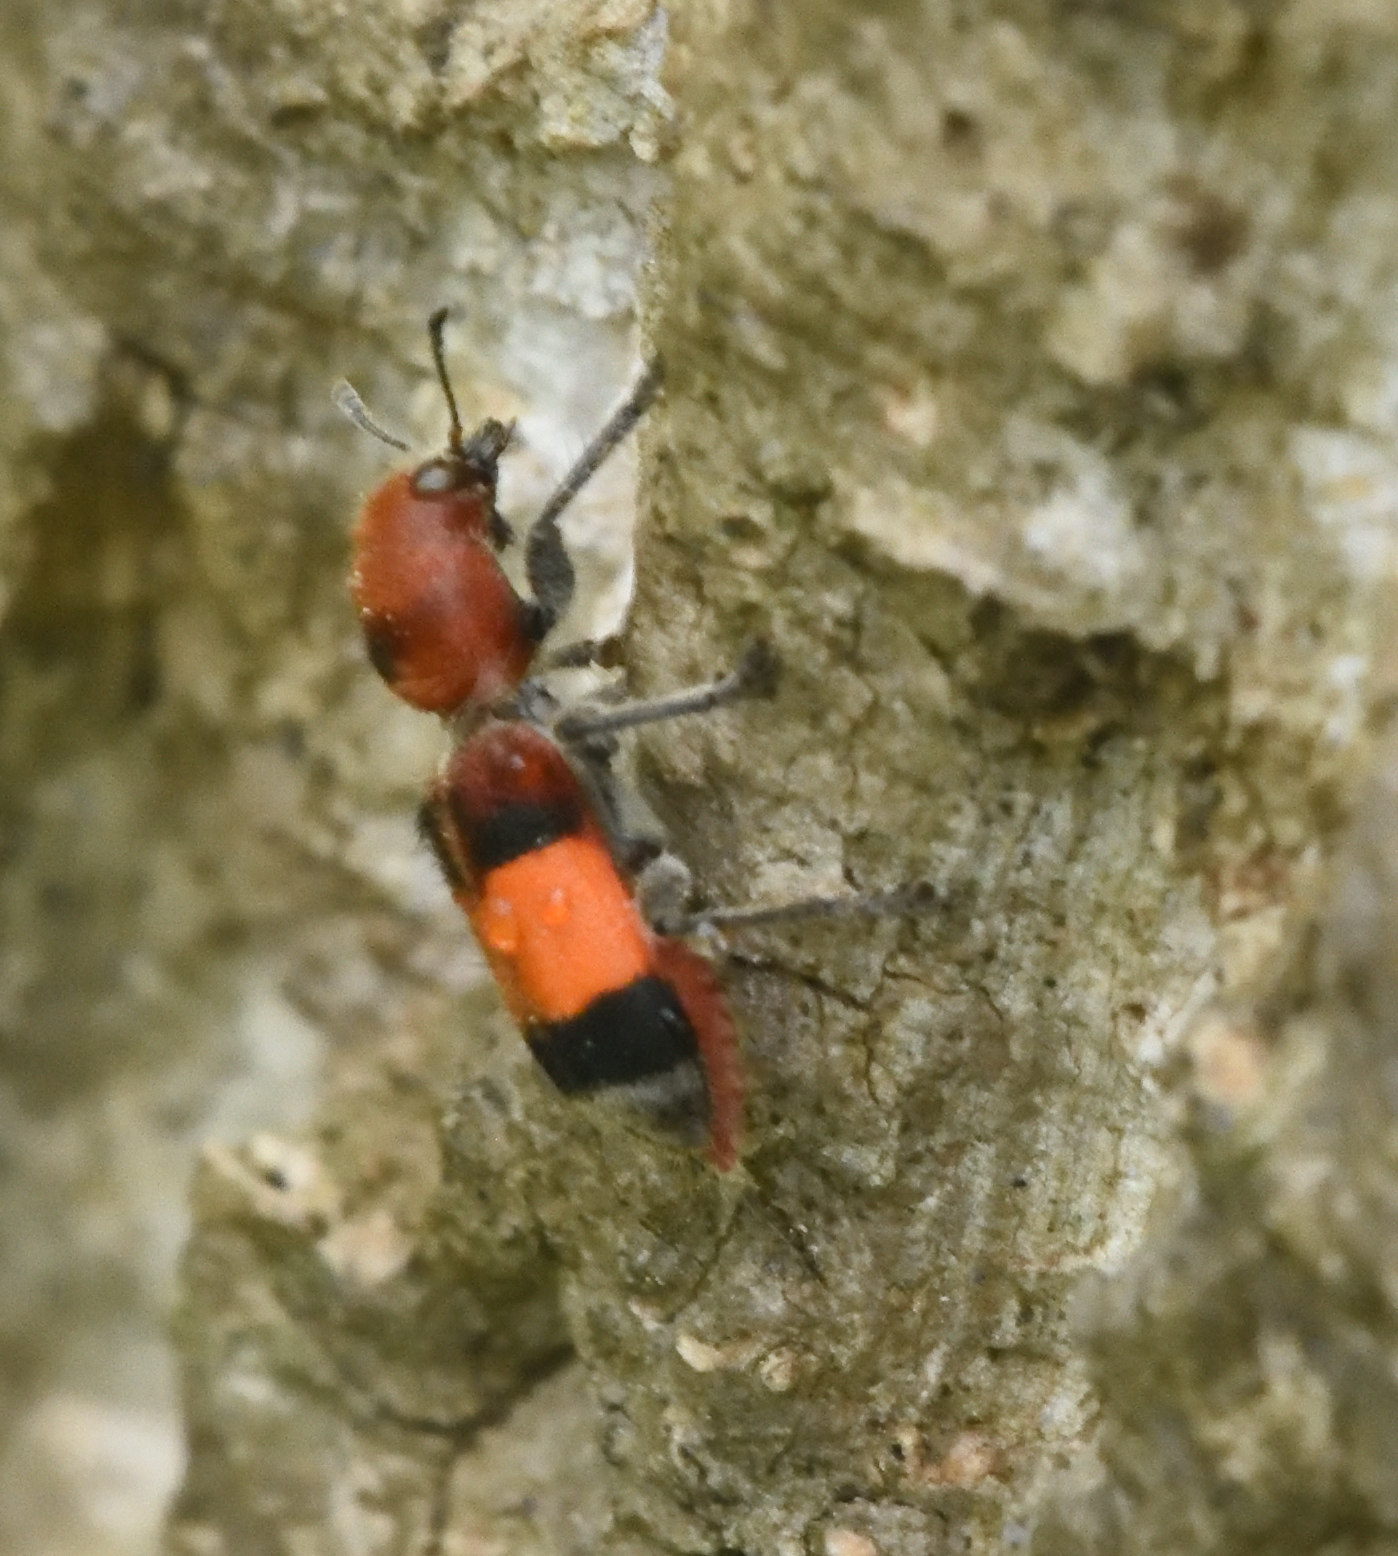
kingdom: Animalia
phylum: Arthropoda
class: Insecta
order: Coleoptera
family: Cleridae
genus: Enoclerus
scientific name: Enoclerus ichneumoneus
